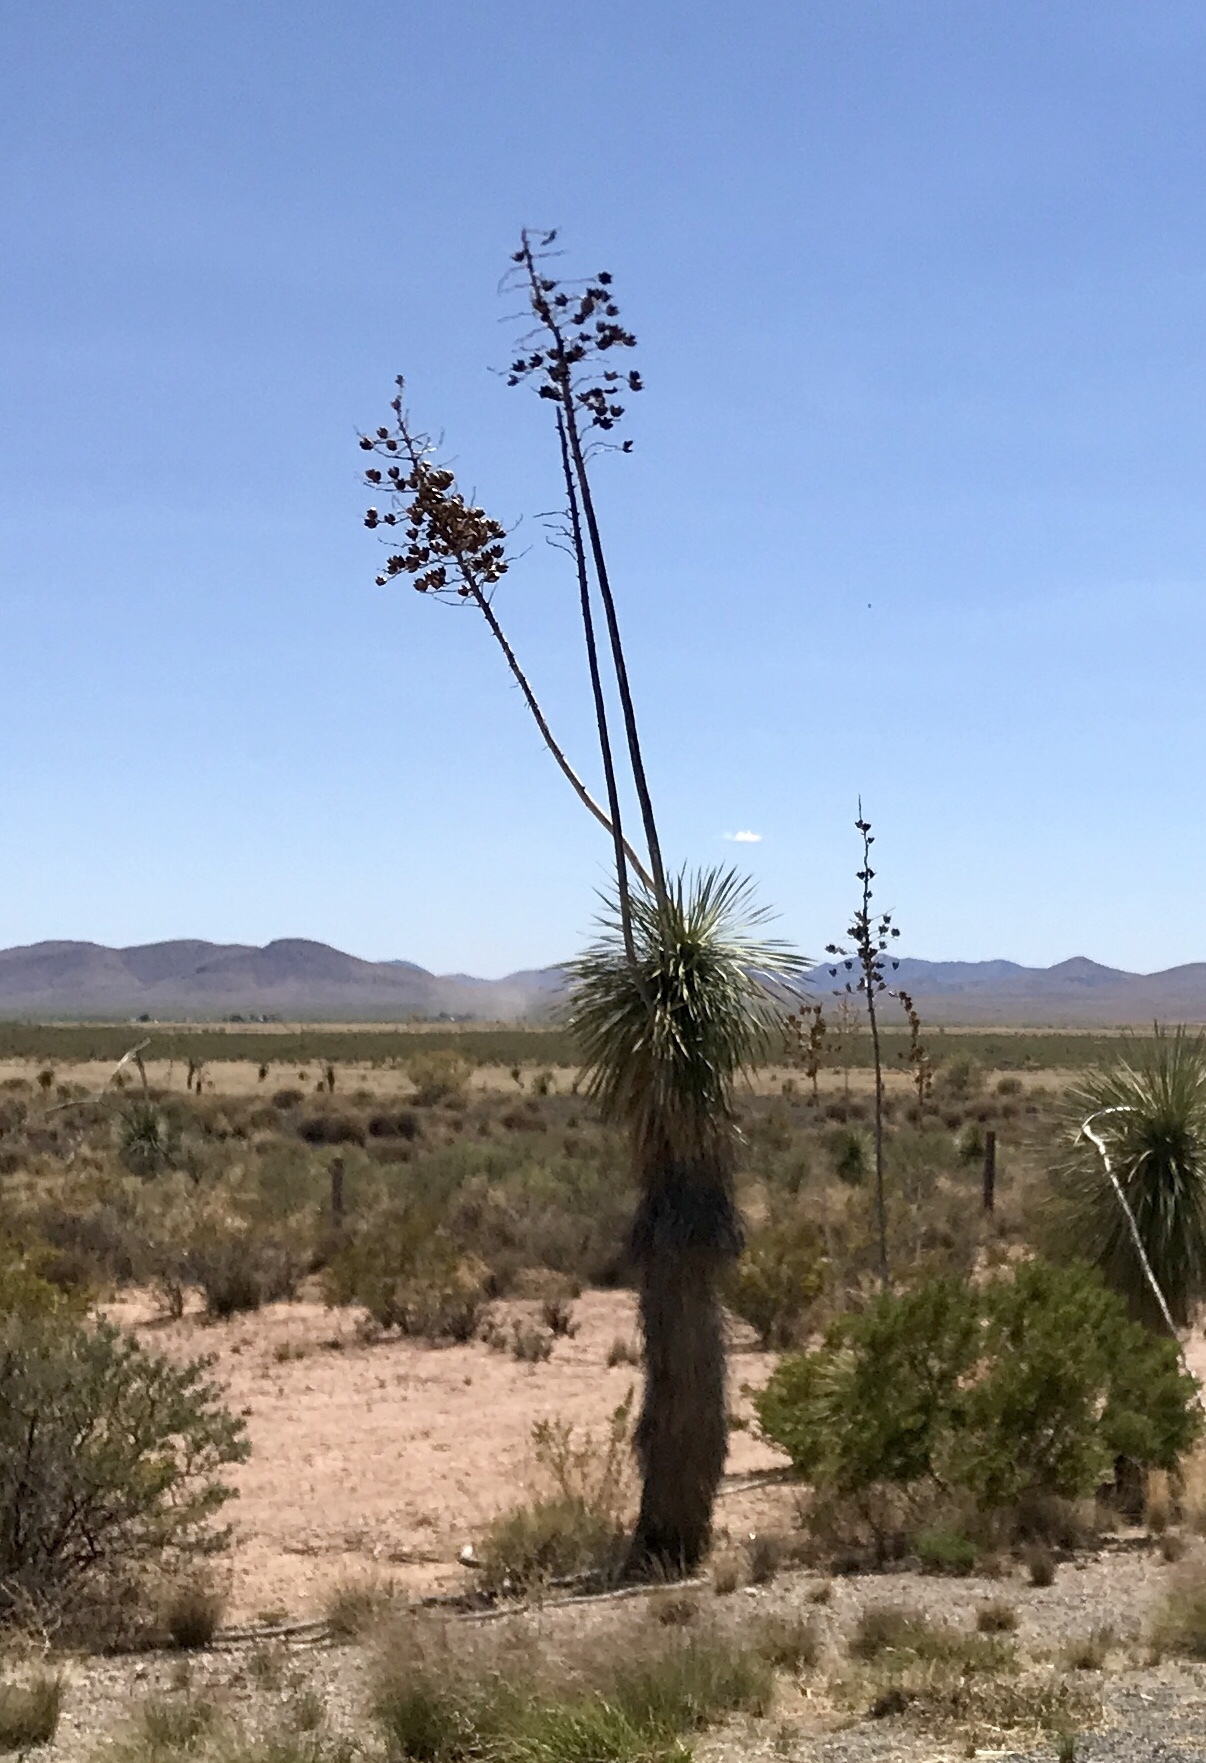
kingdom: Plantae
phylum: Tracheophyta
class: Liliopsida
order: Asparagales
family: Asparagaceae
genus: Yucca
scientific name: Yucca elata
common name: Palmella
